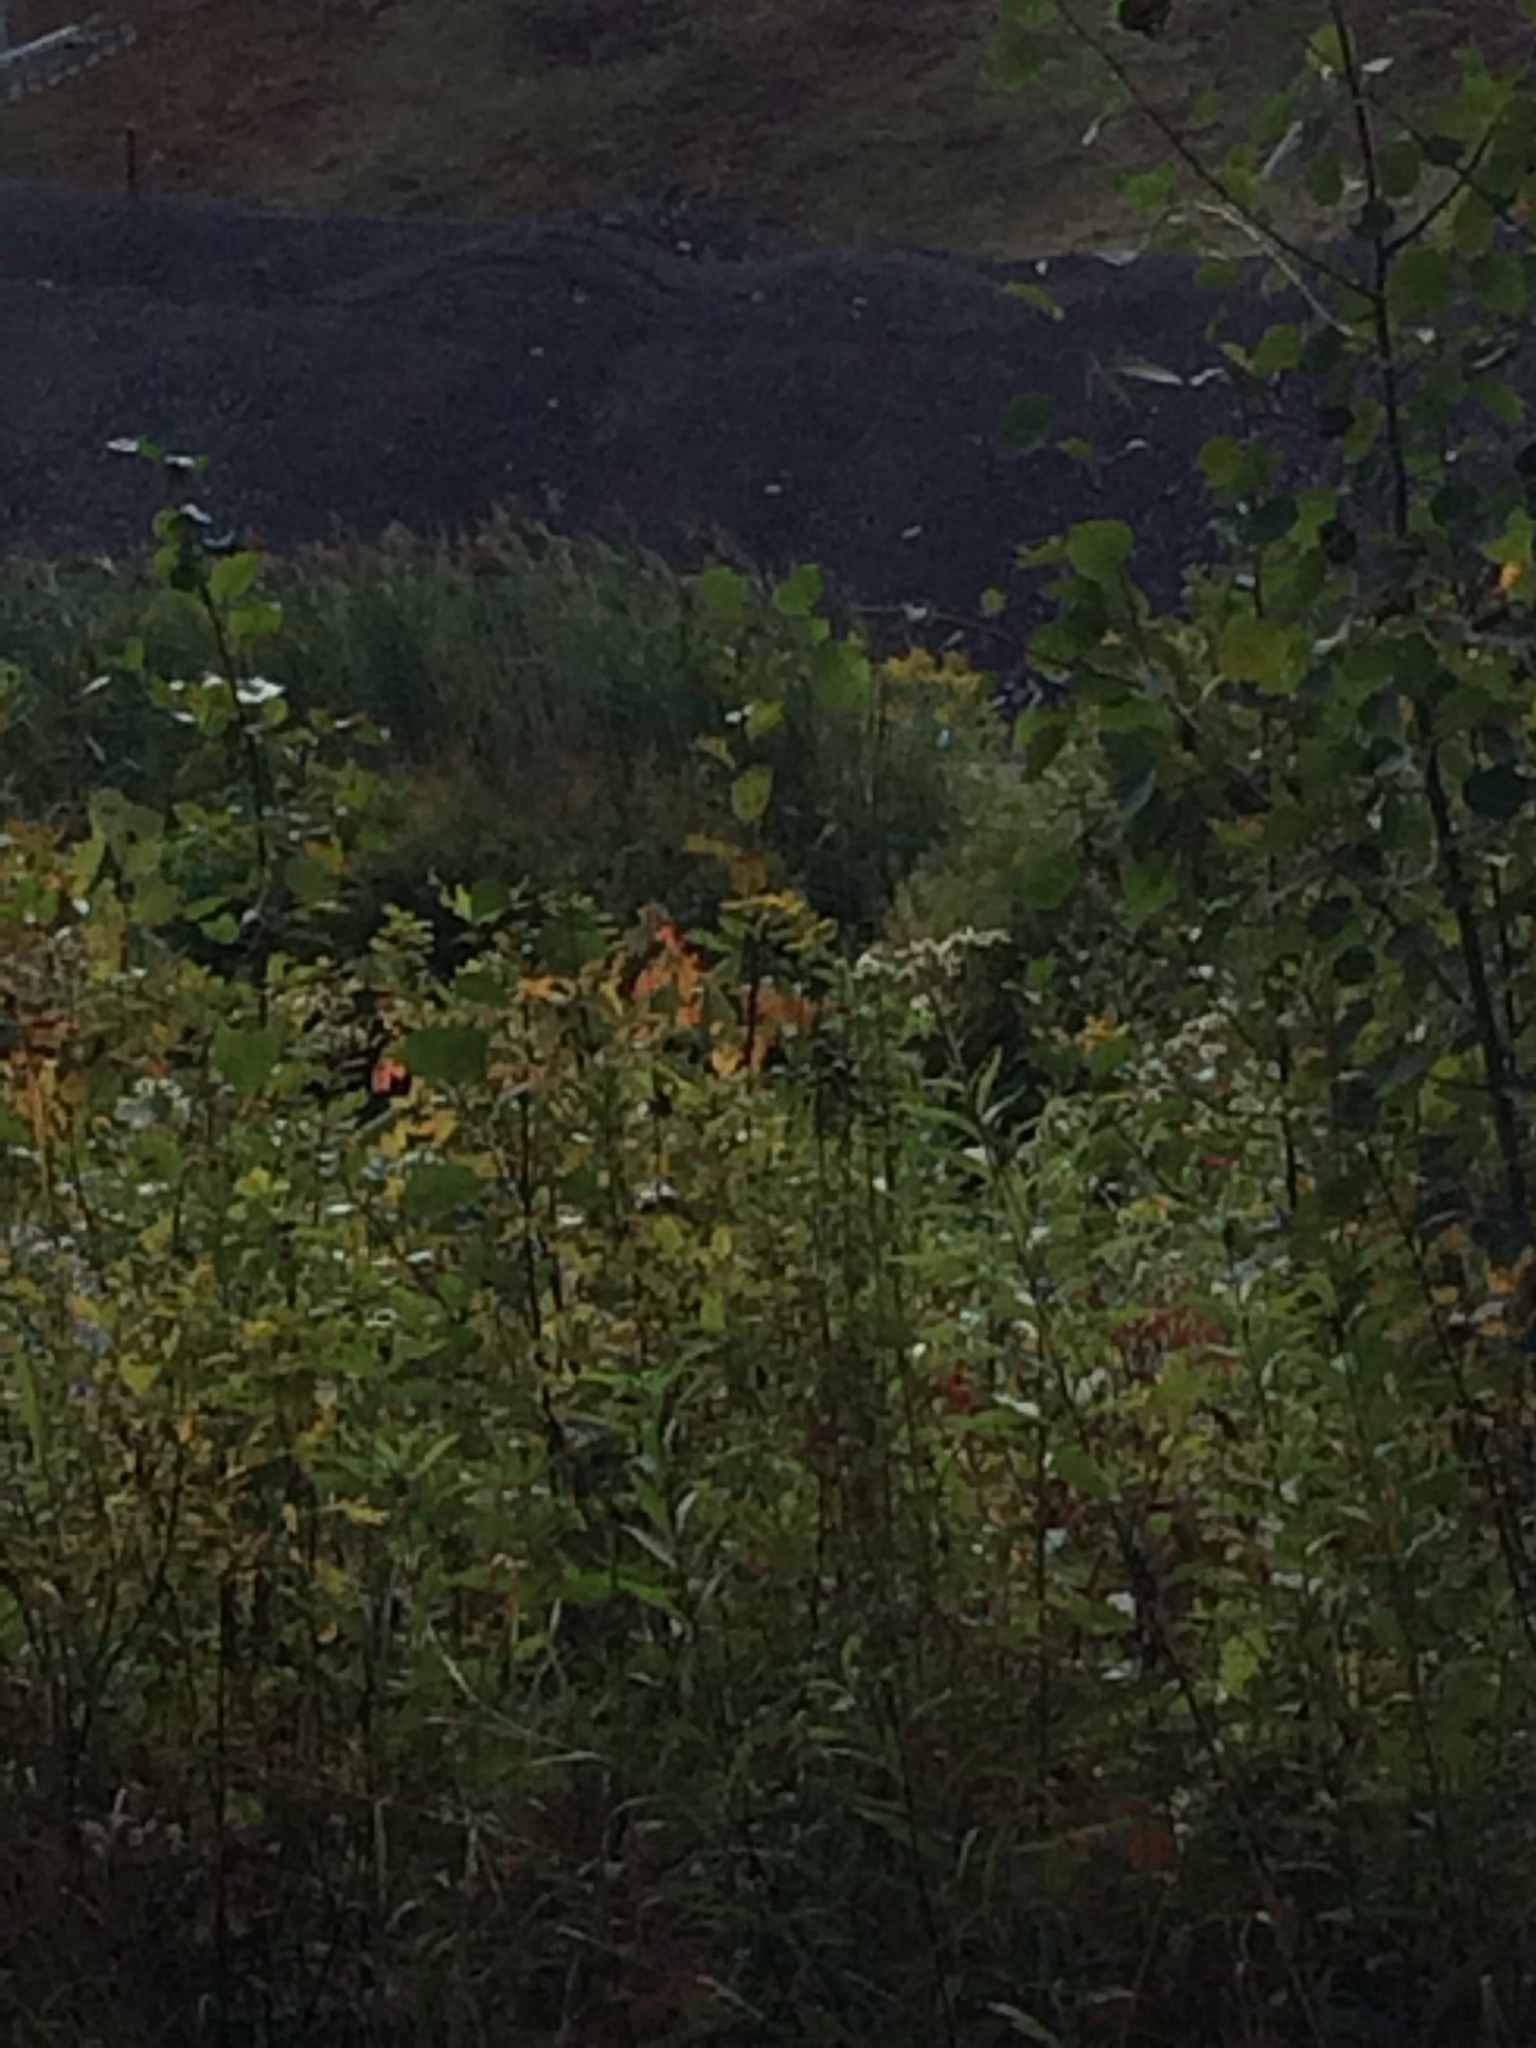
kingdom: Plantae
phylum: Tracheophyta
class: Liliopsida
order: Poales
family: Poaceae
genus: Phragmites
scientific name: Phragmites australis
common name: Common reed
